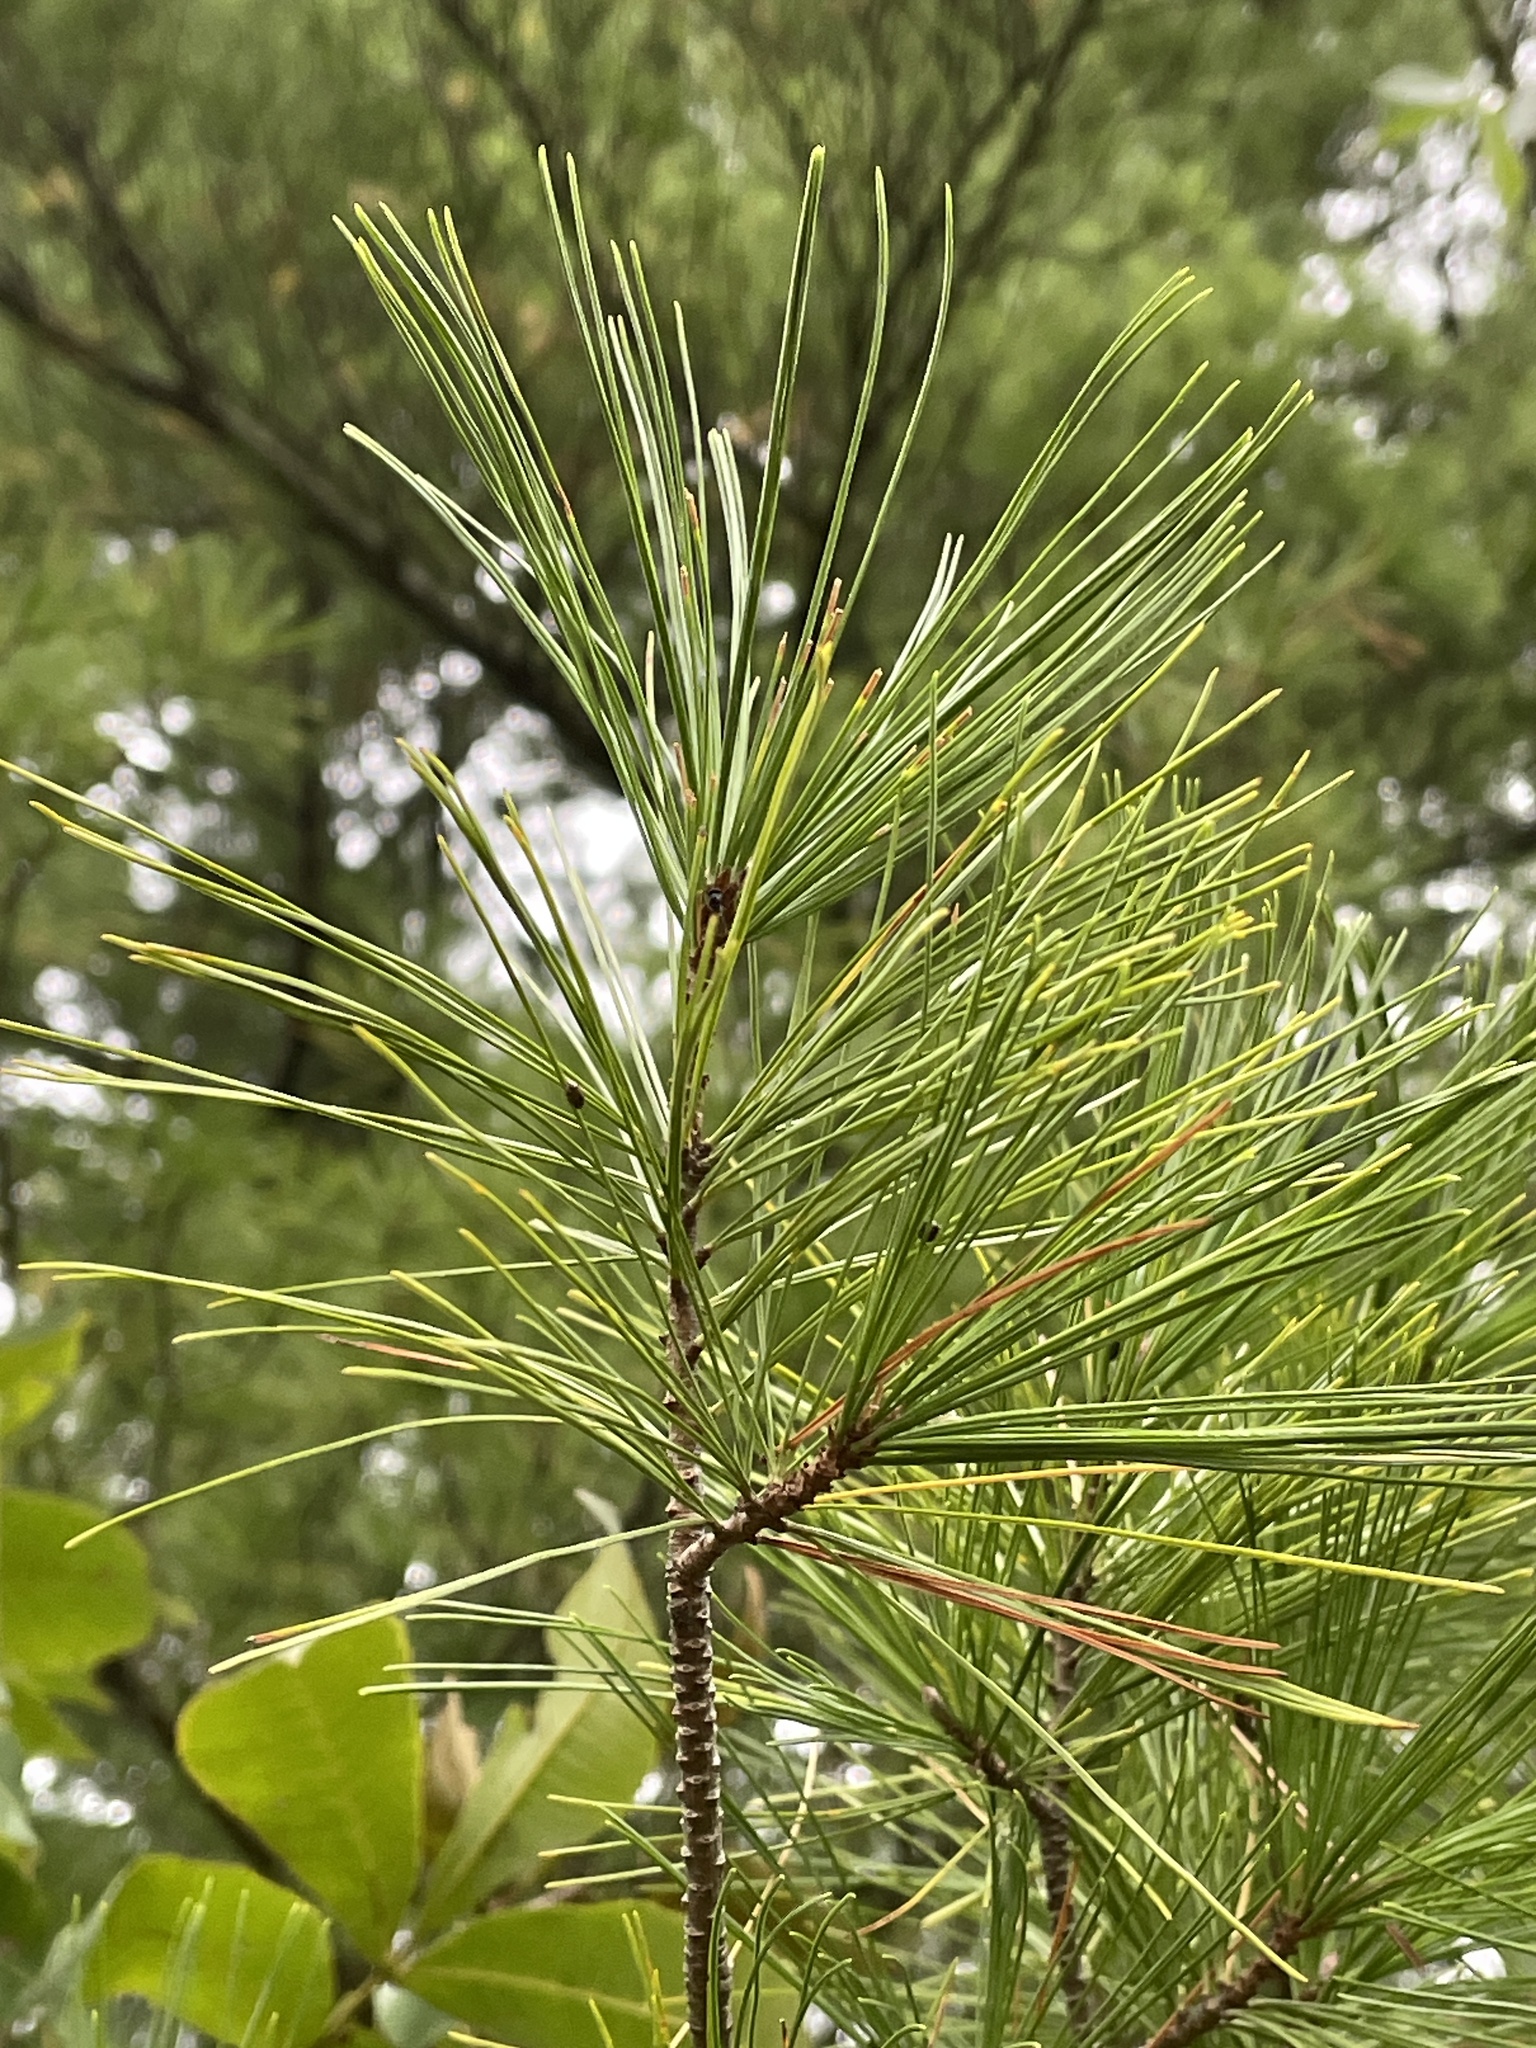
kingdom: Plantae
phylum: Tracheophyta
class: Pinopsida
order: Pinales
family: Pinaceae
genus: Pinus
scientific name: Pinus strobus
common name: Weymouth pine
